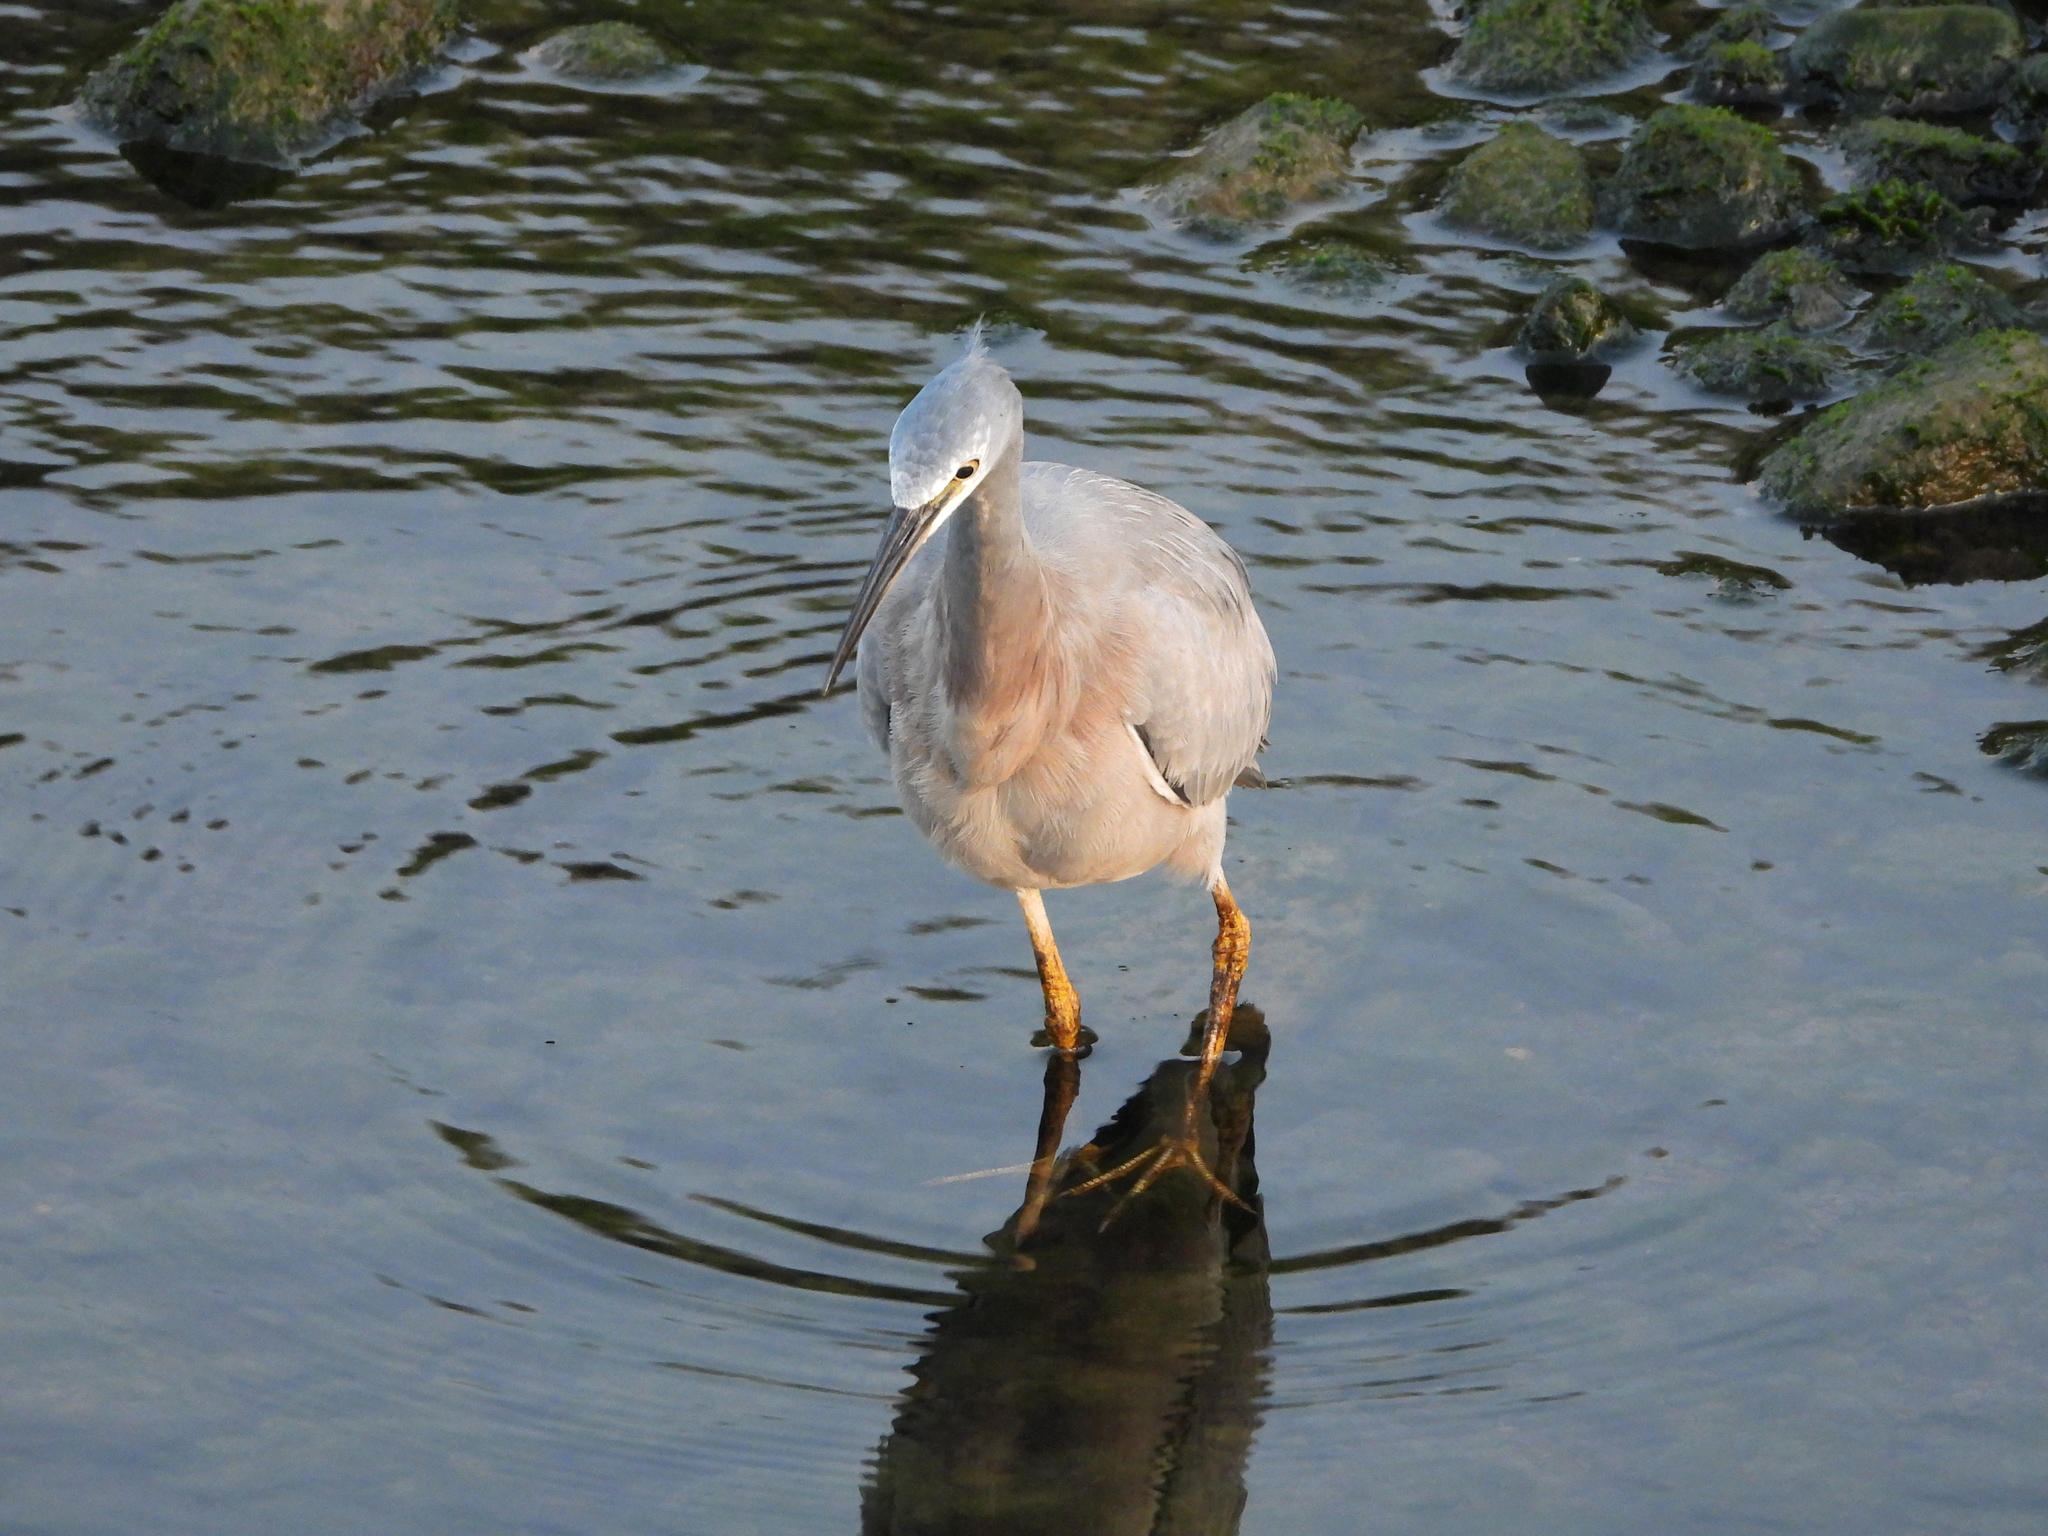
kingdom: Animalia
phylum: Chordata
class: Aves
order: Pelecaniformes
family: Ardeidae
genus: Egretta
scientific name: Egretta novaehollandiae
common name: White-faced heron
